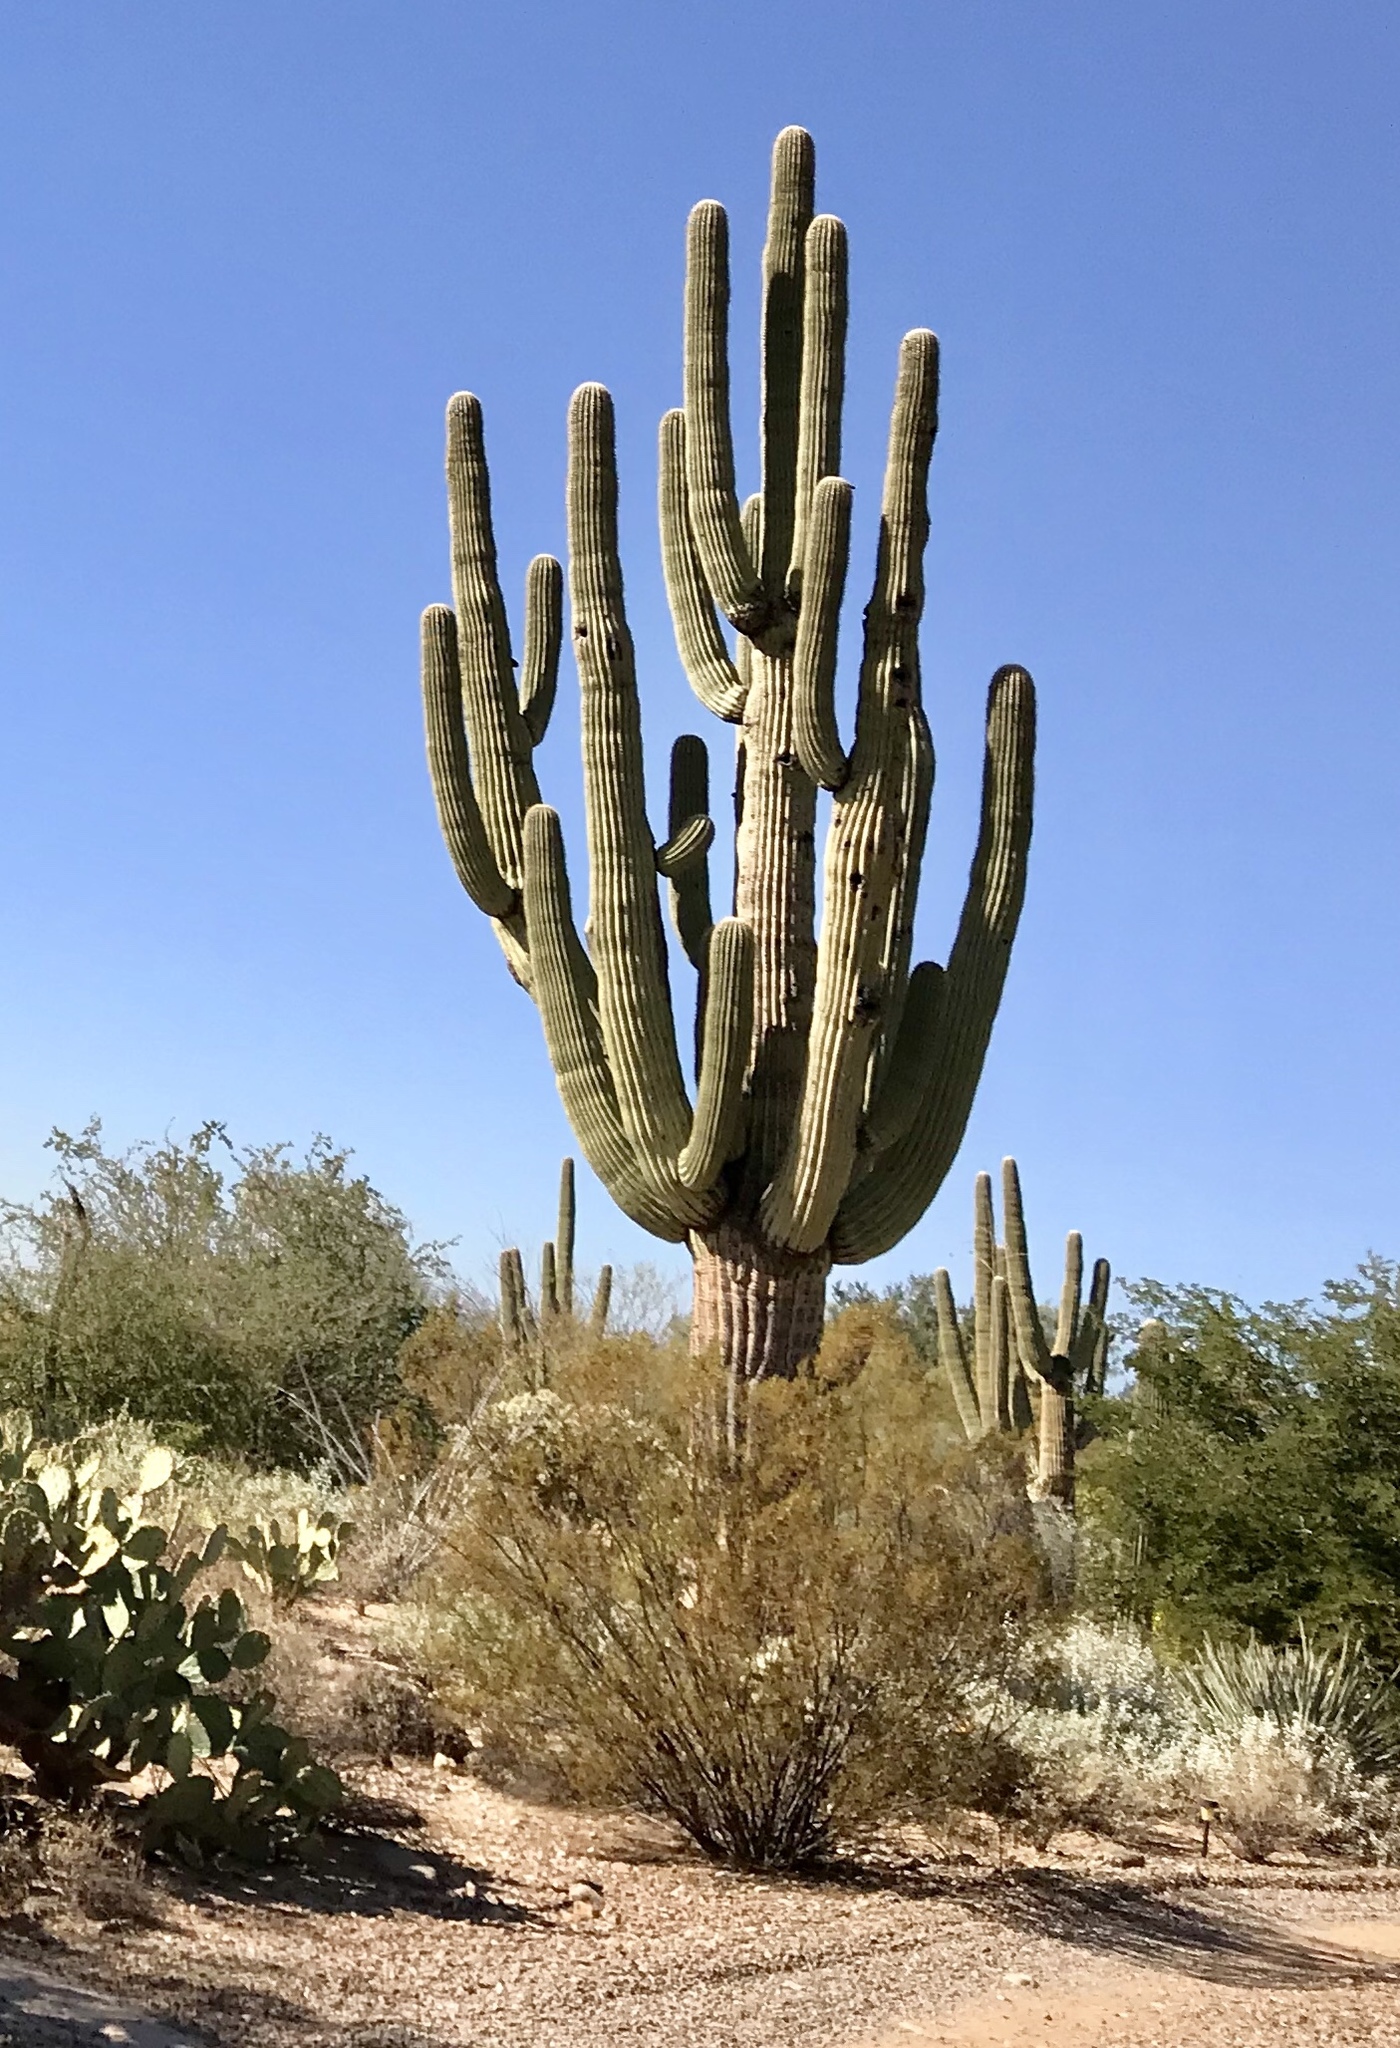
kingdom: Plantae
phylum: Tracheophyta
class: Magnoliopsida
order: Zygophyllales
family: Zygophyllaceae
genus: Larrea
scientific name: Larrea tridentata
